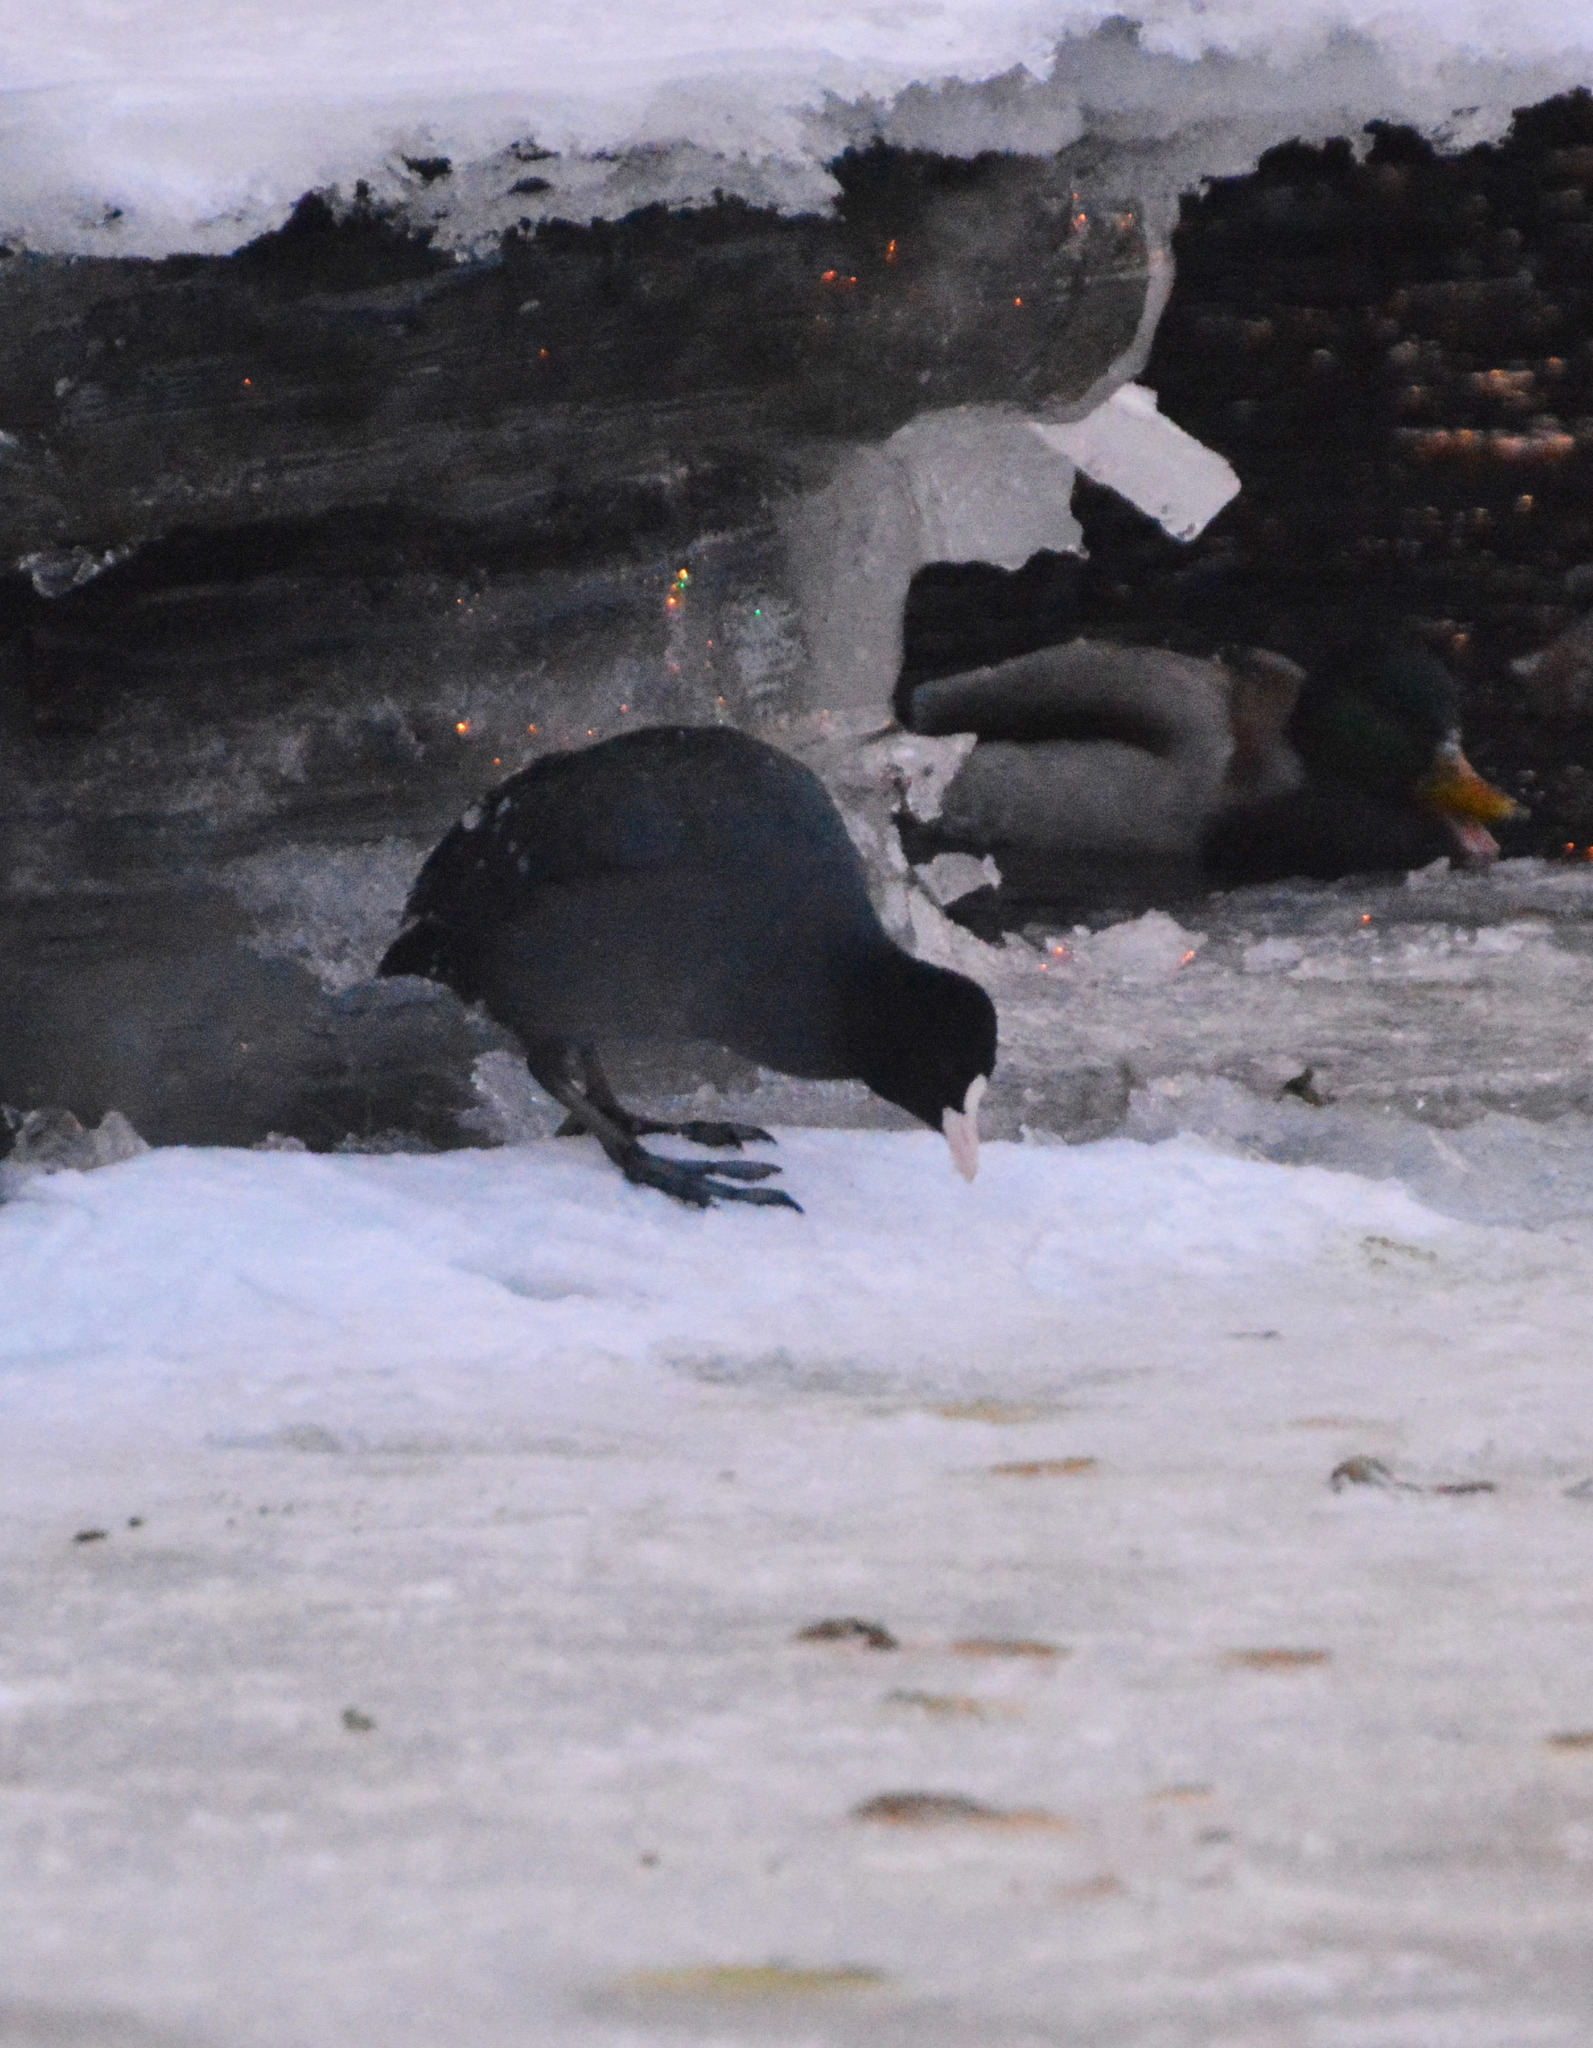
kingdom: Animalia
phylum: Chordata
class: Aves
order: Gruiformes
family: Rallidae
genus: Fulica
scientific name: Fulica atra
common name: Eurasian coot
